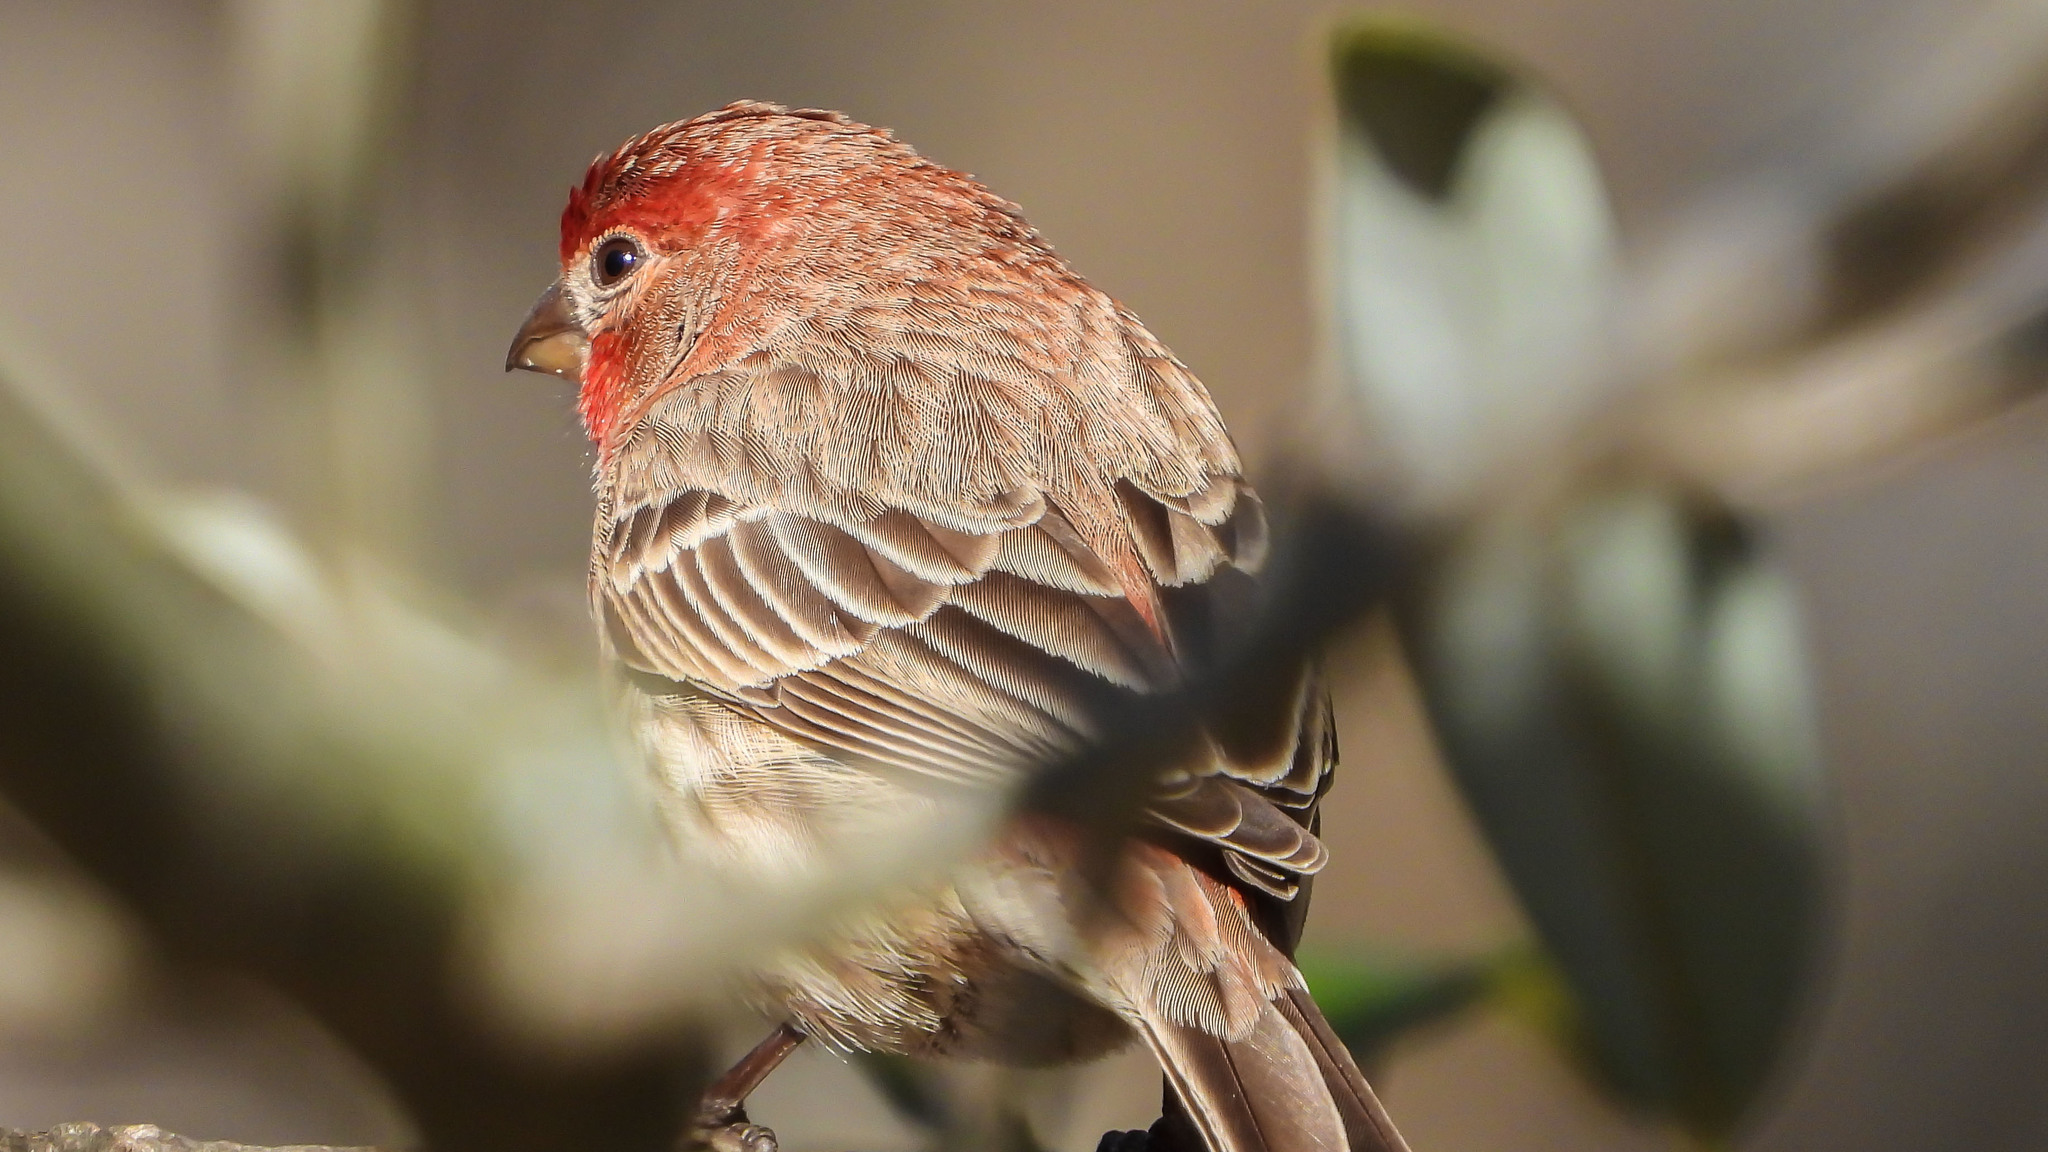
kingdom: Animalia
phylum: Chordata
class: Aves
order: Passeriformes
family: Fringillidae
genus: Haemorhous
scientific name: Haemorhous mexicanus
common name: House finch
